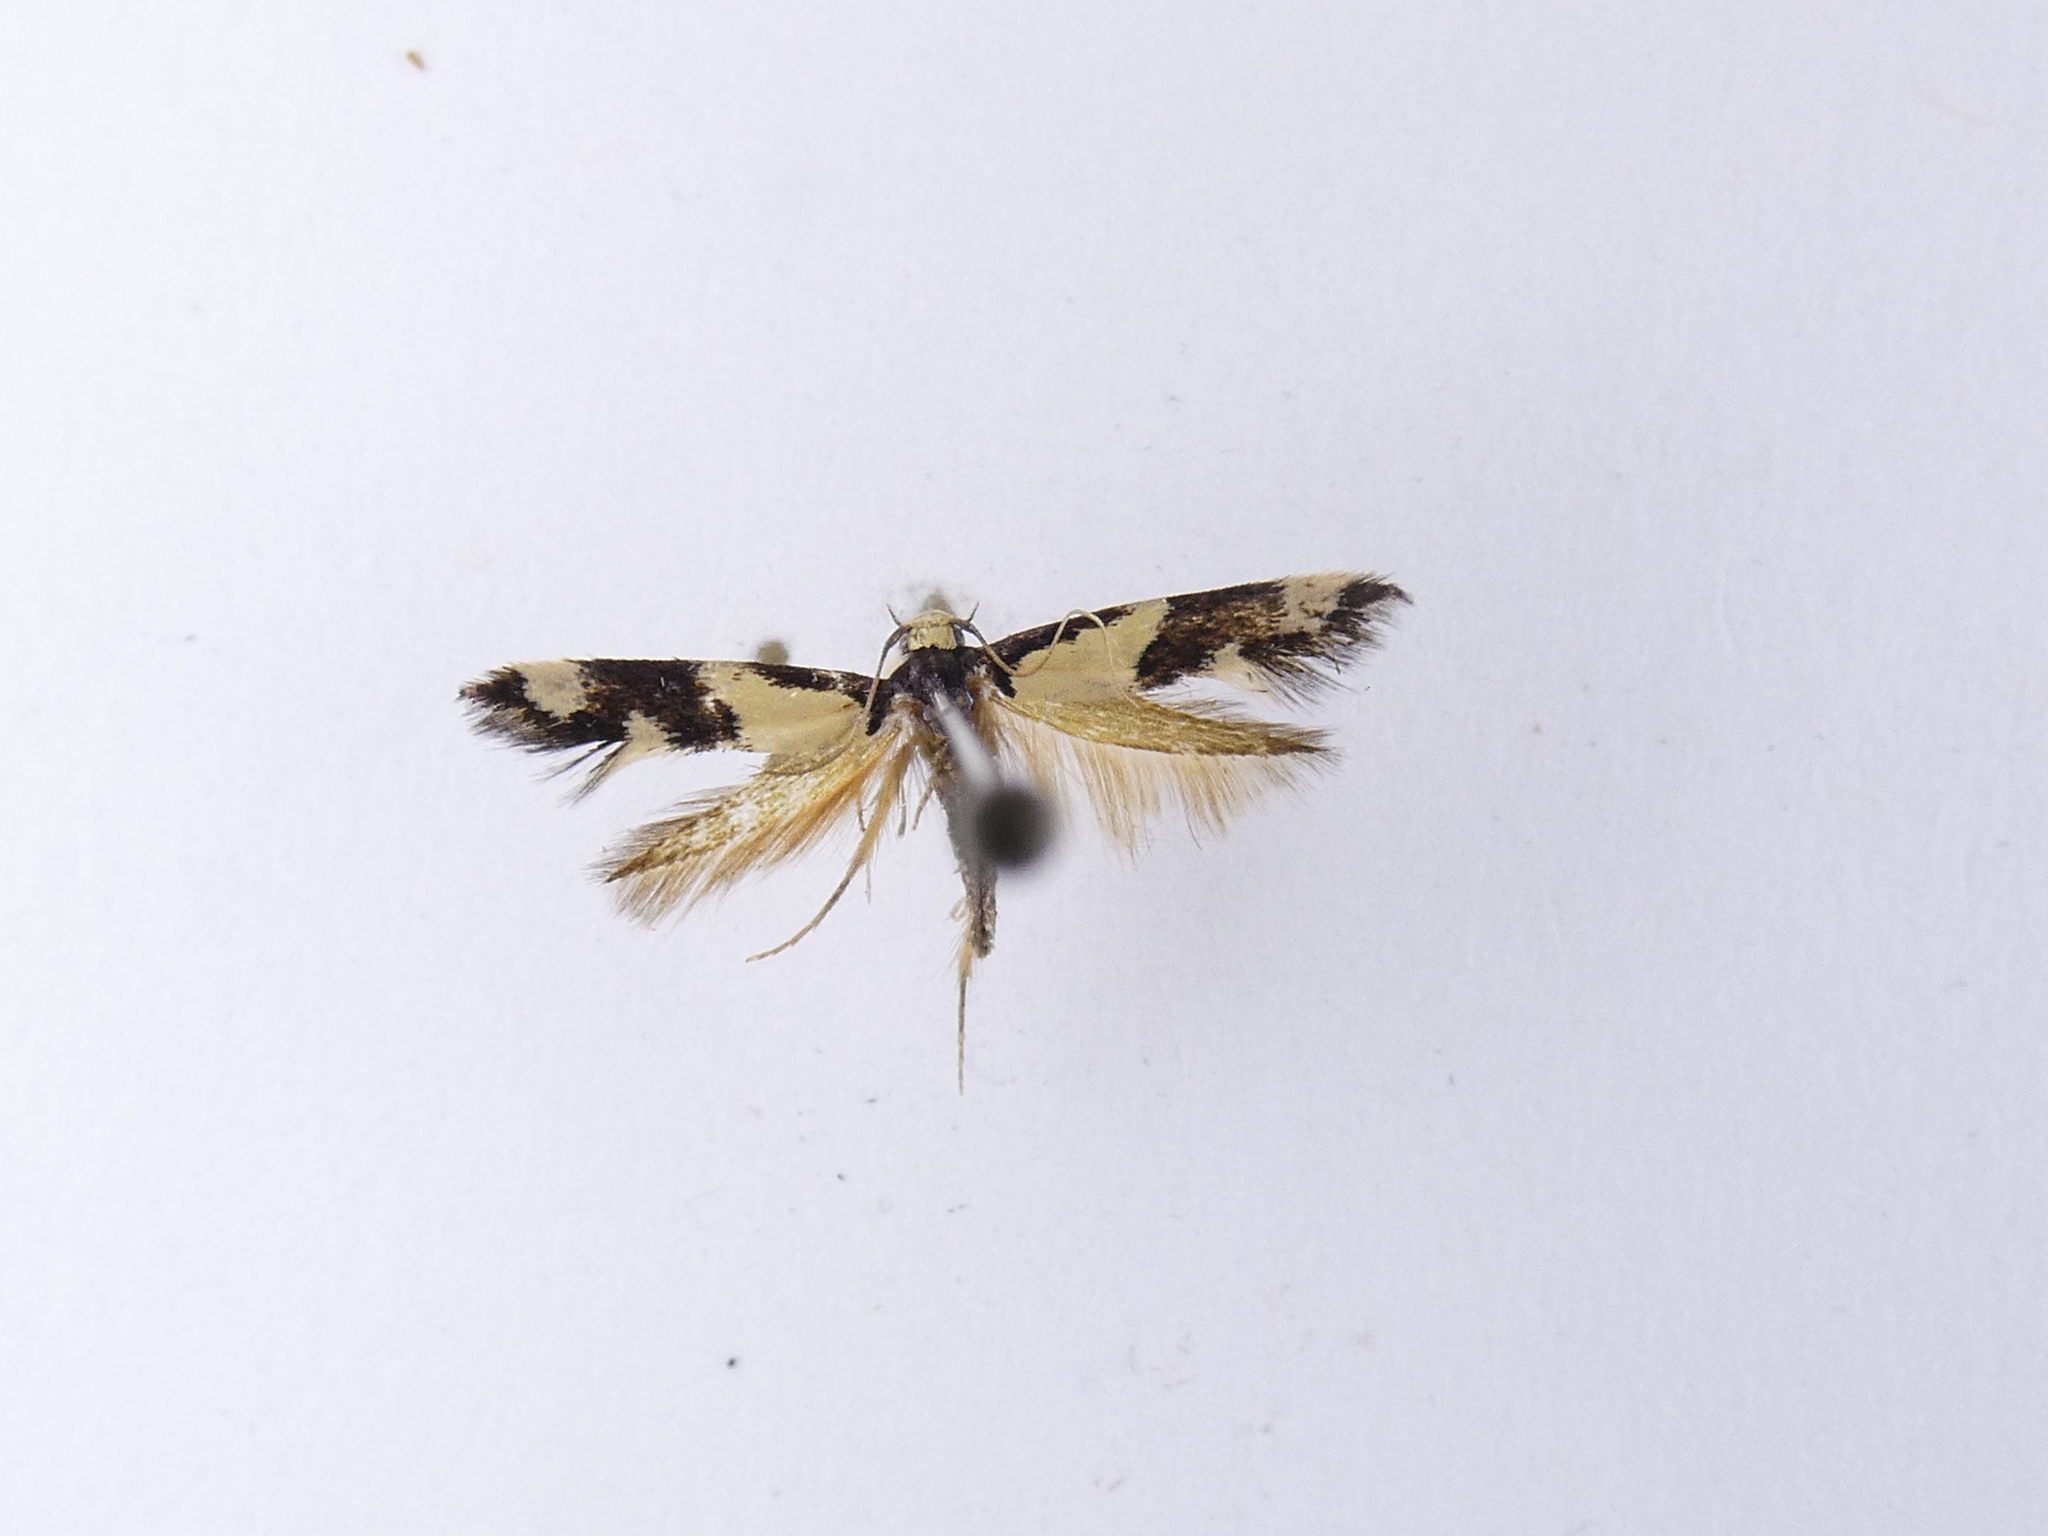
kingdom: Animalia
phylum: Arthropoda
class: Insecta
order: Lepidoptera
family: Tineidae
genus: Opogona
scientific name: Opogona comptella
